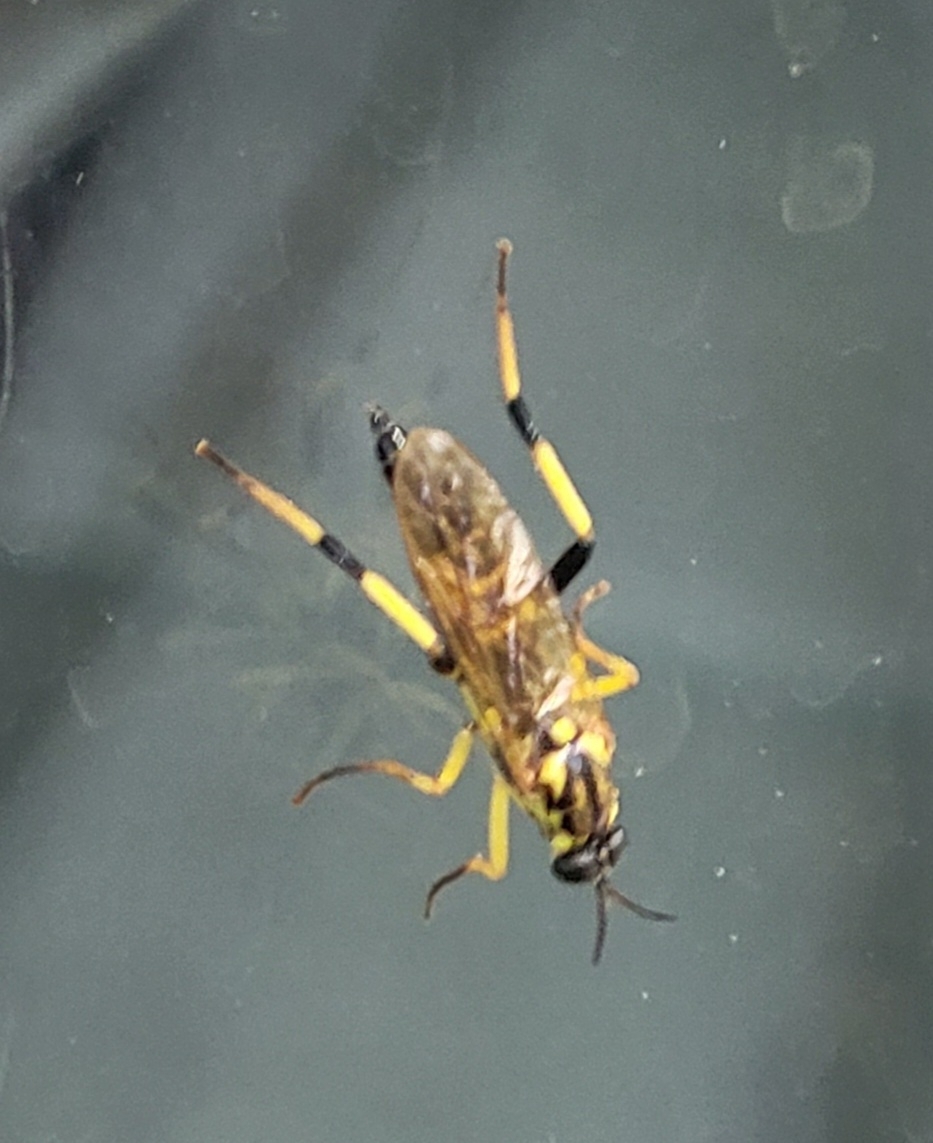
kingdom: Animalia
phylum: Arthropoda
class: Insecta
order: Diptera
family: Xylomyidae
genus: Xylomya
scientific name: Xylomya terminalis
